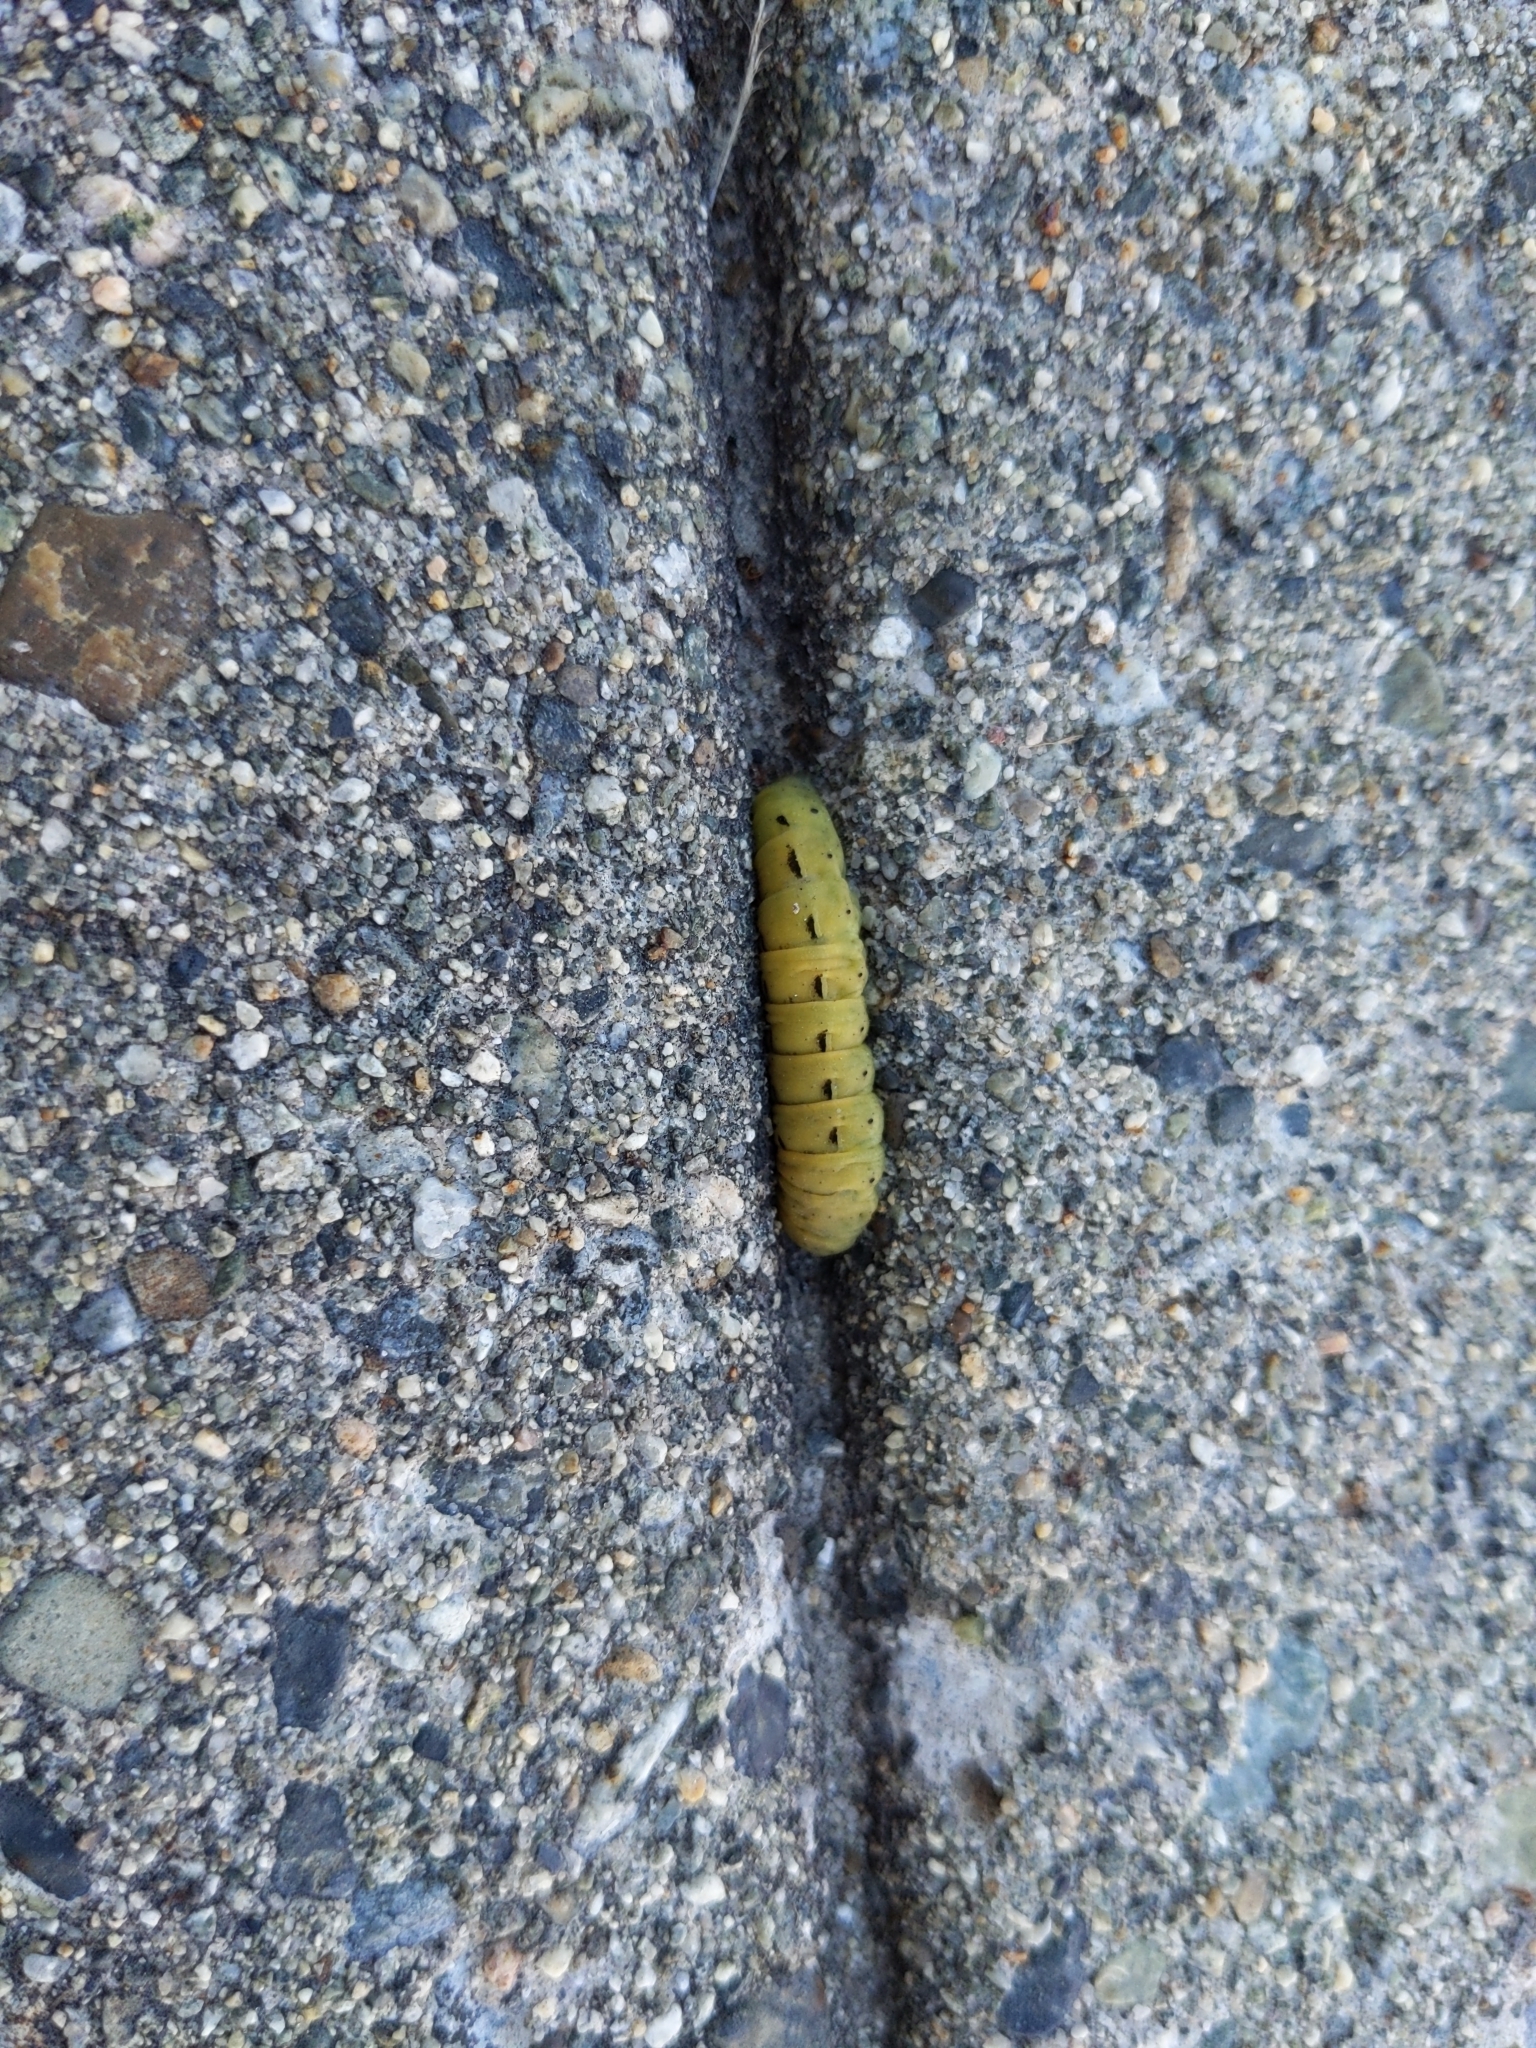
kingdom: Animalia
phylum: Arthropoda
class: Insecta
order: Lepidoptera
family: Noctuidae
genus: Noctua
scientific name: Noctua pronuba
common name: Large yellow underwing
